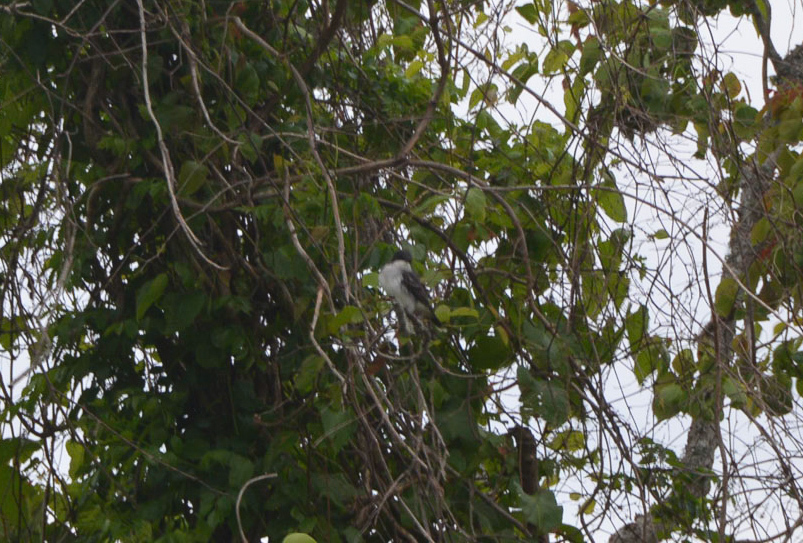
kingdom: Animalia
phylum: Chordata
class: Aves
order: Passeriformes
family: Tyrannidae
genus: Tyrannus
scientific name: Tyrannus tyrannus
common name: Eastern kingbird
